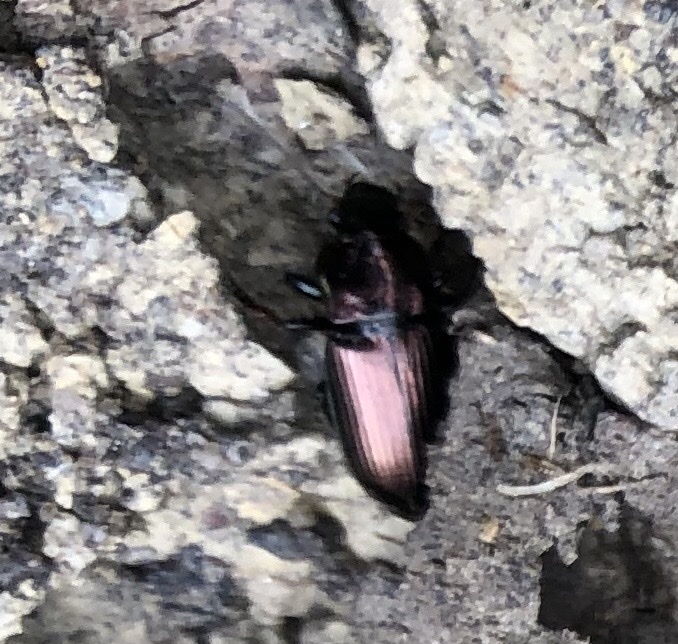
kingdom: Animalia
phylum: Arthropoda
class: Insecta
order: Coleoptera
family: Carabidae
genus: Harpalus
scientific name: Harpalus distinguendus
